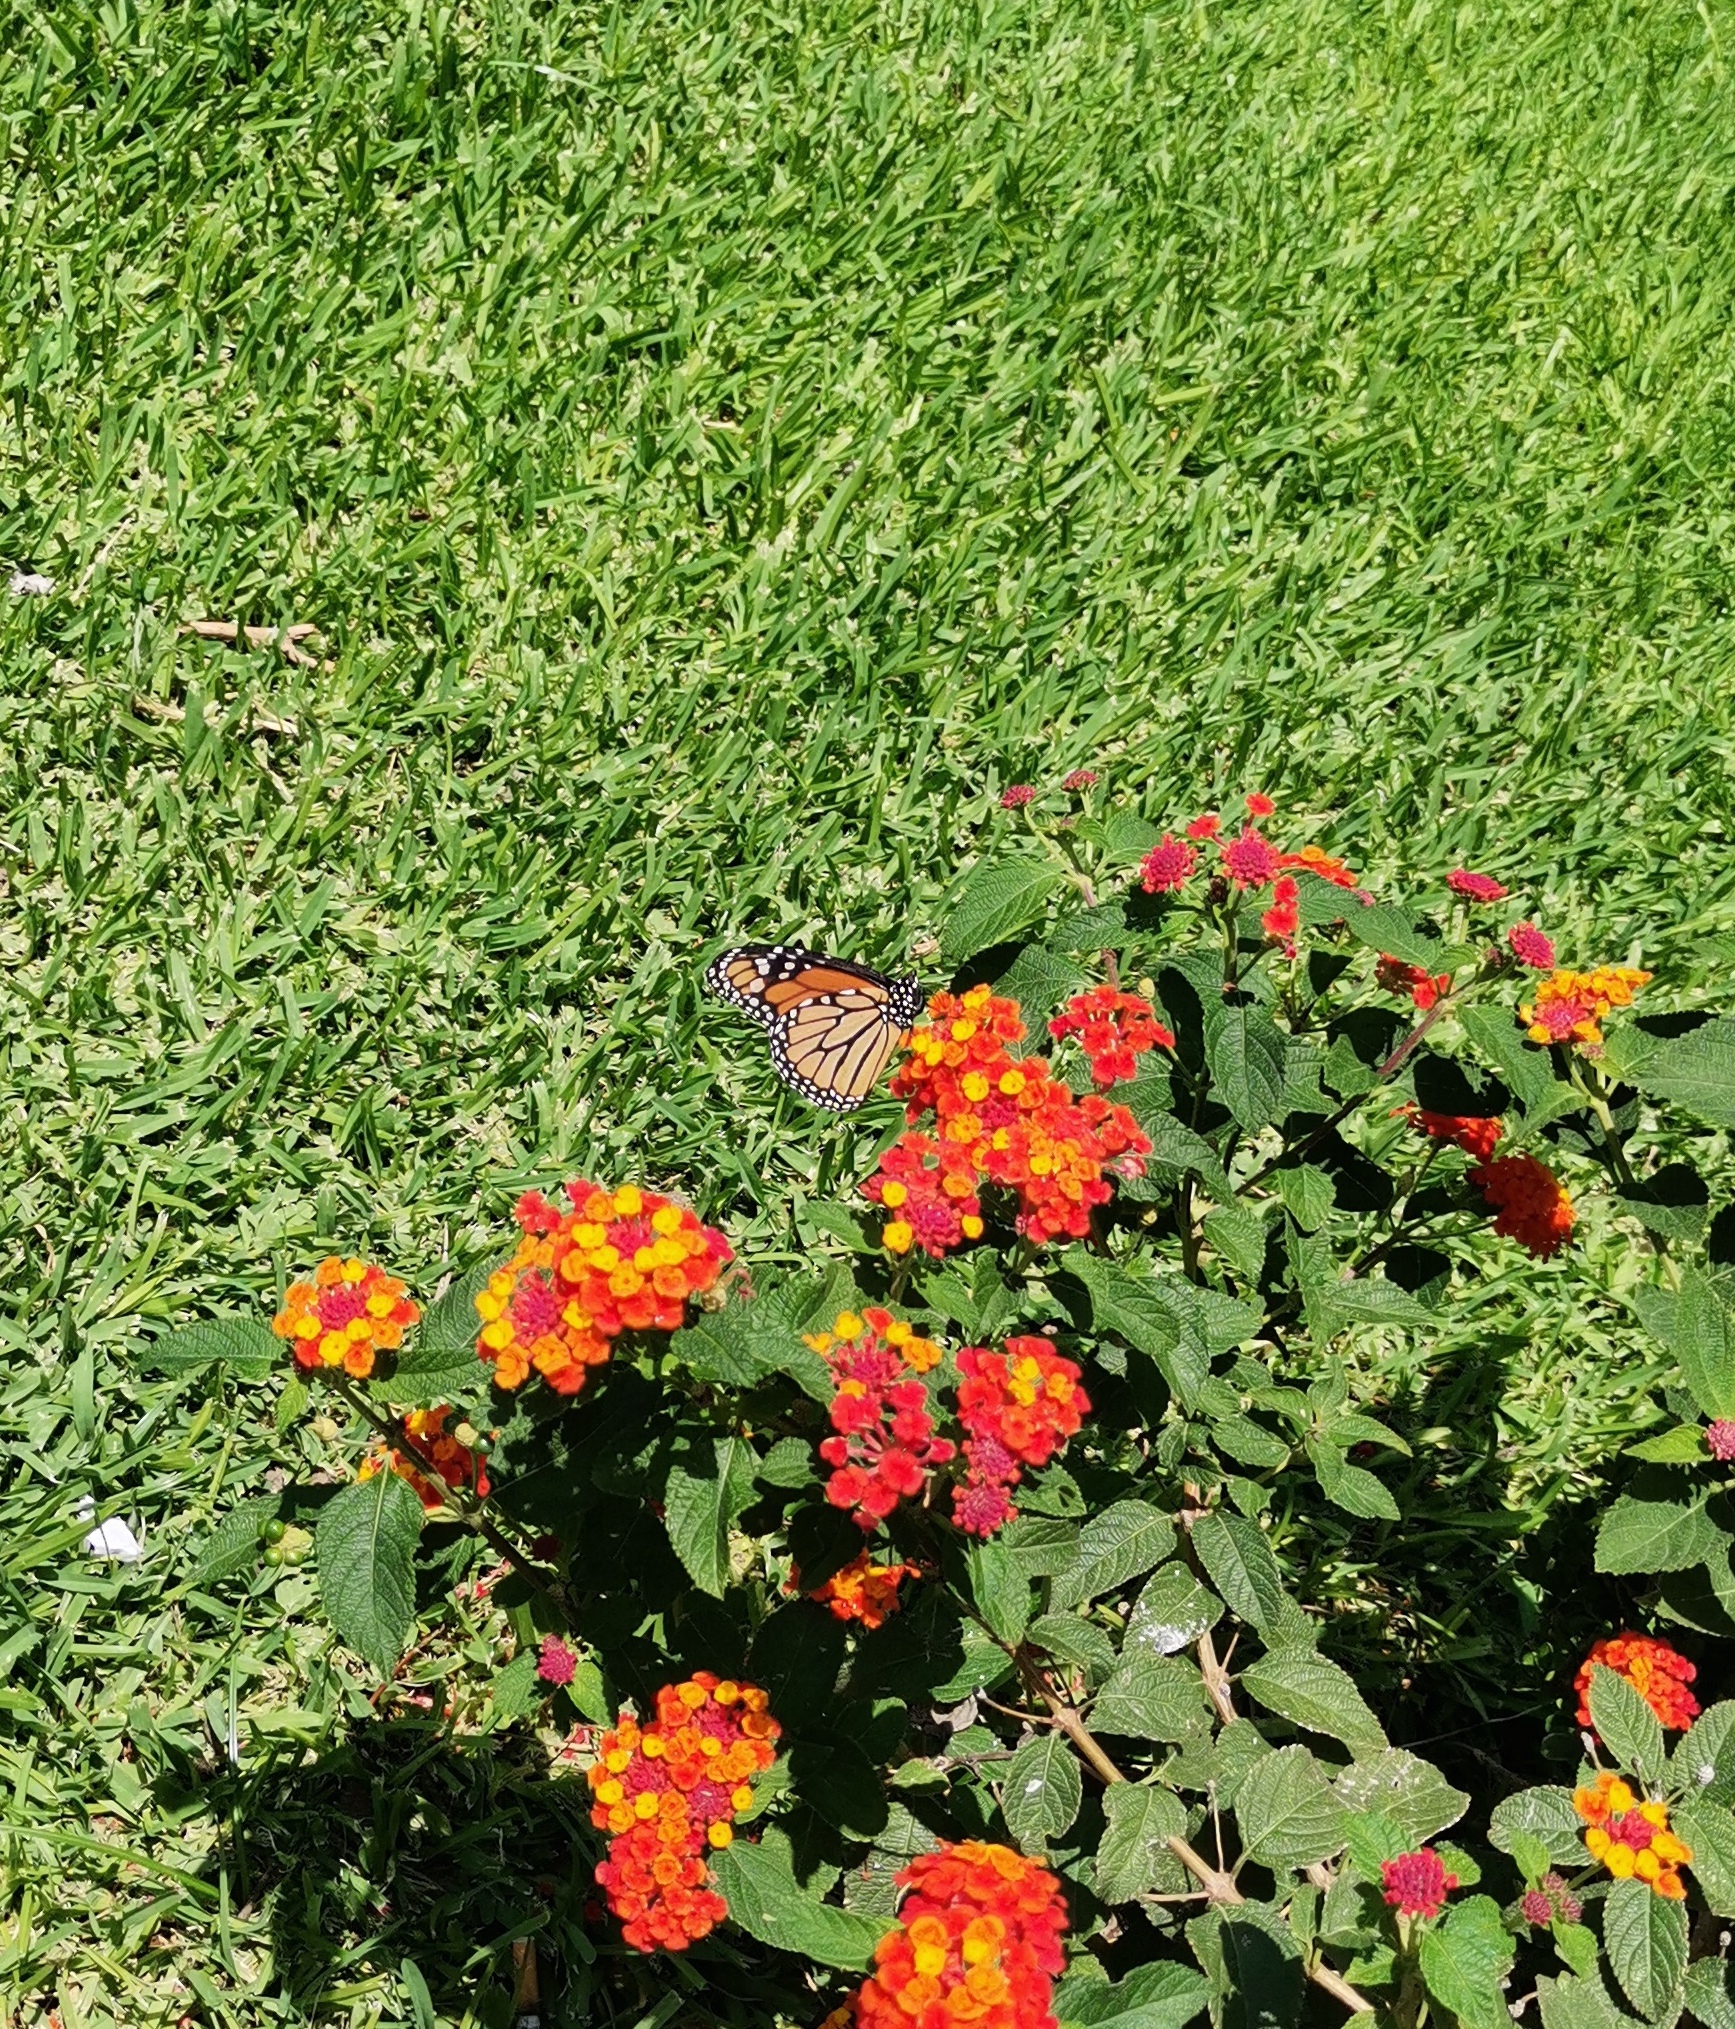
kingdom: Animalia
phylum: Arthropoda
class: Insecta
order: Lepidoptera
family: Nymphalidae
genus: Danaus
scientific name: Danaus plexippus
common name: Monarch
